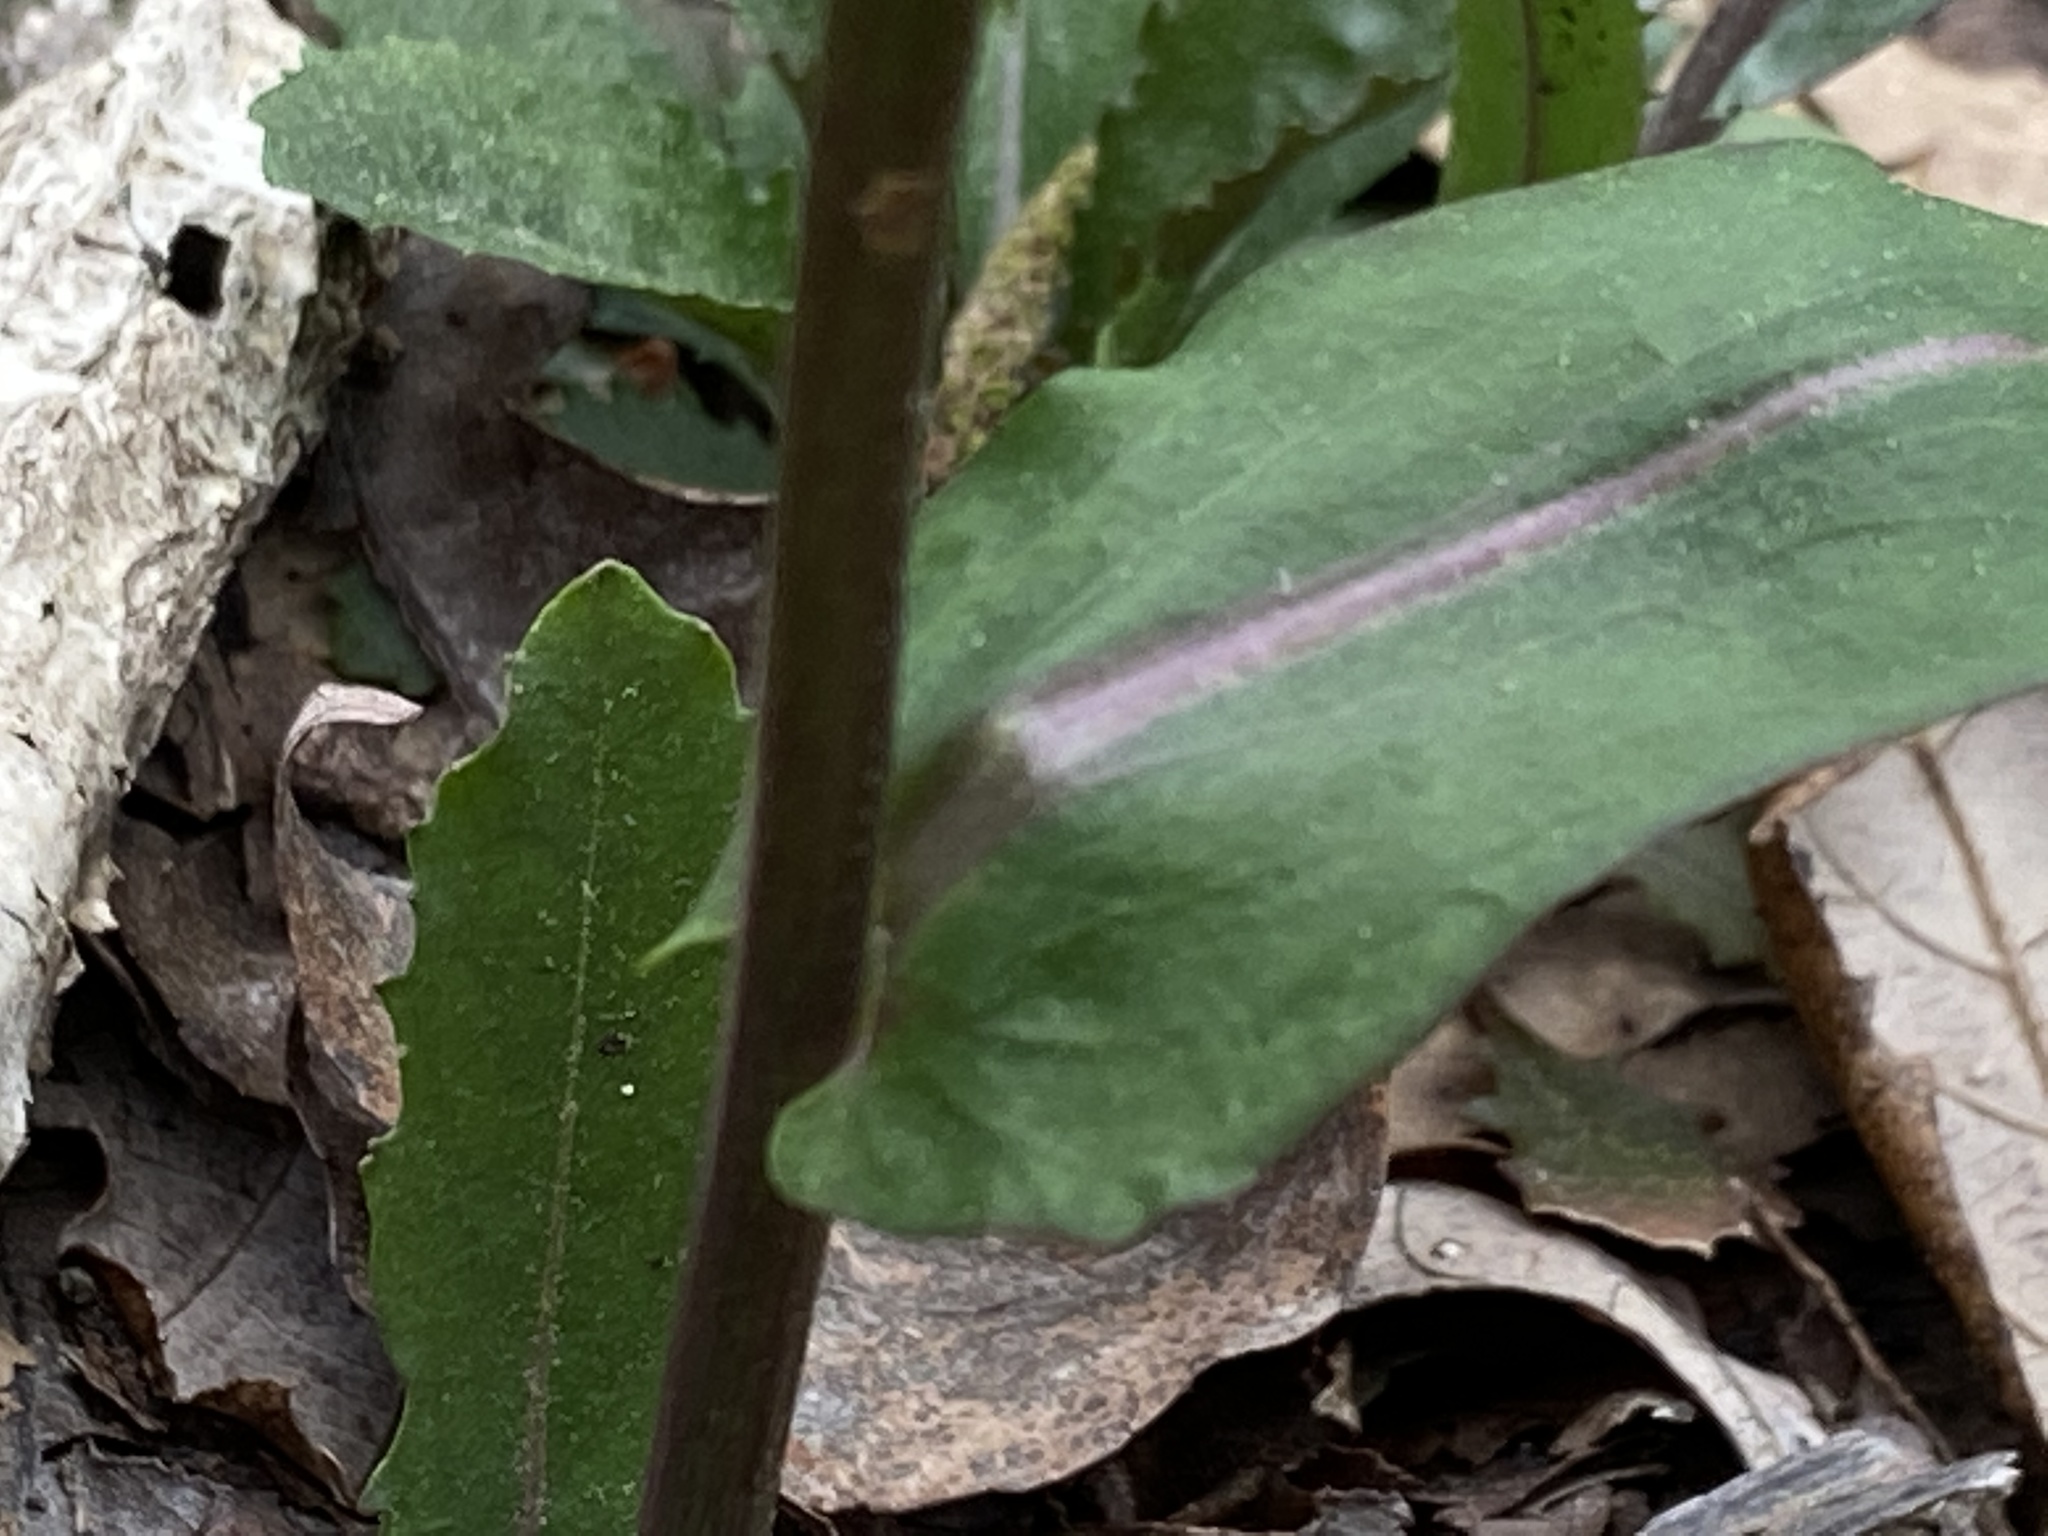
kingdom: Plantae
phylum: Tracheophyta
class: Magnoliopsida
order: Brassicales
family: Brassicaceae
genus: Borodinia
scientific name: Borodinia laevigata
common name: Smooth rockcress
